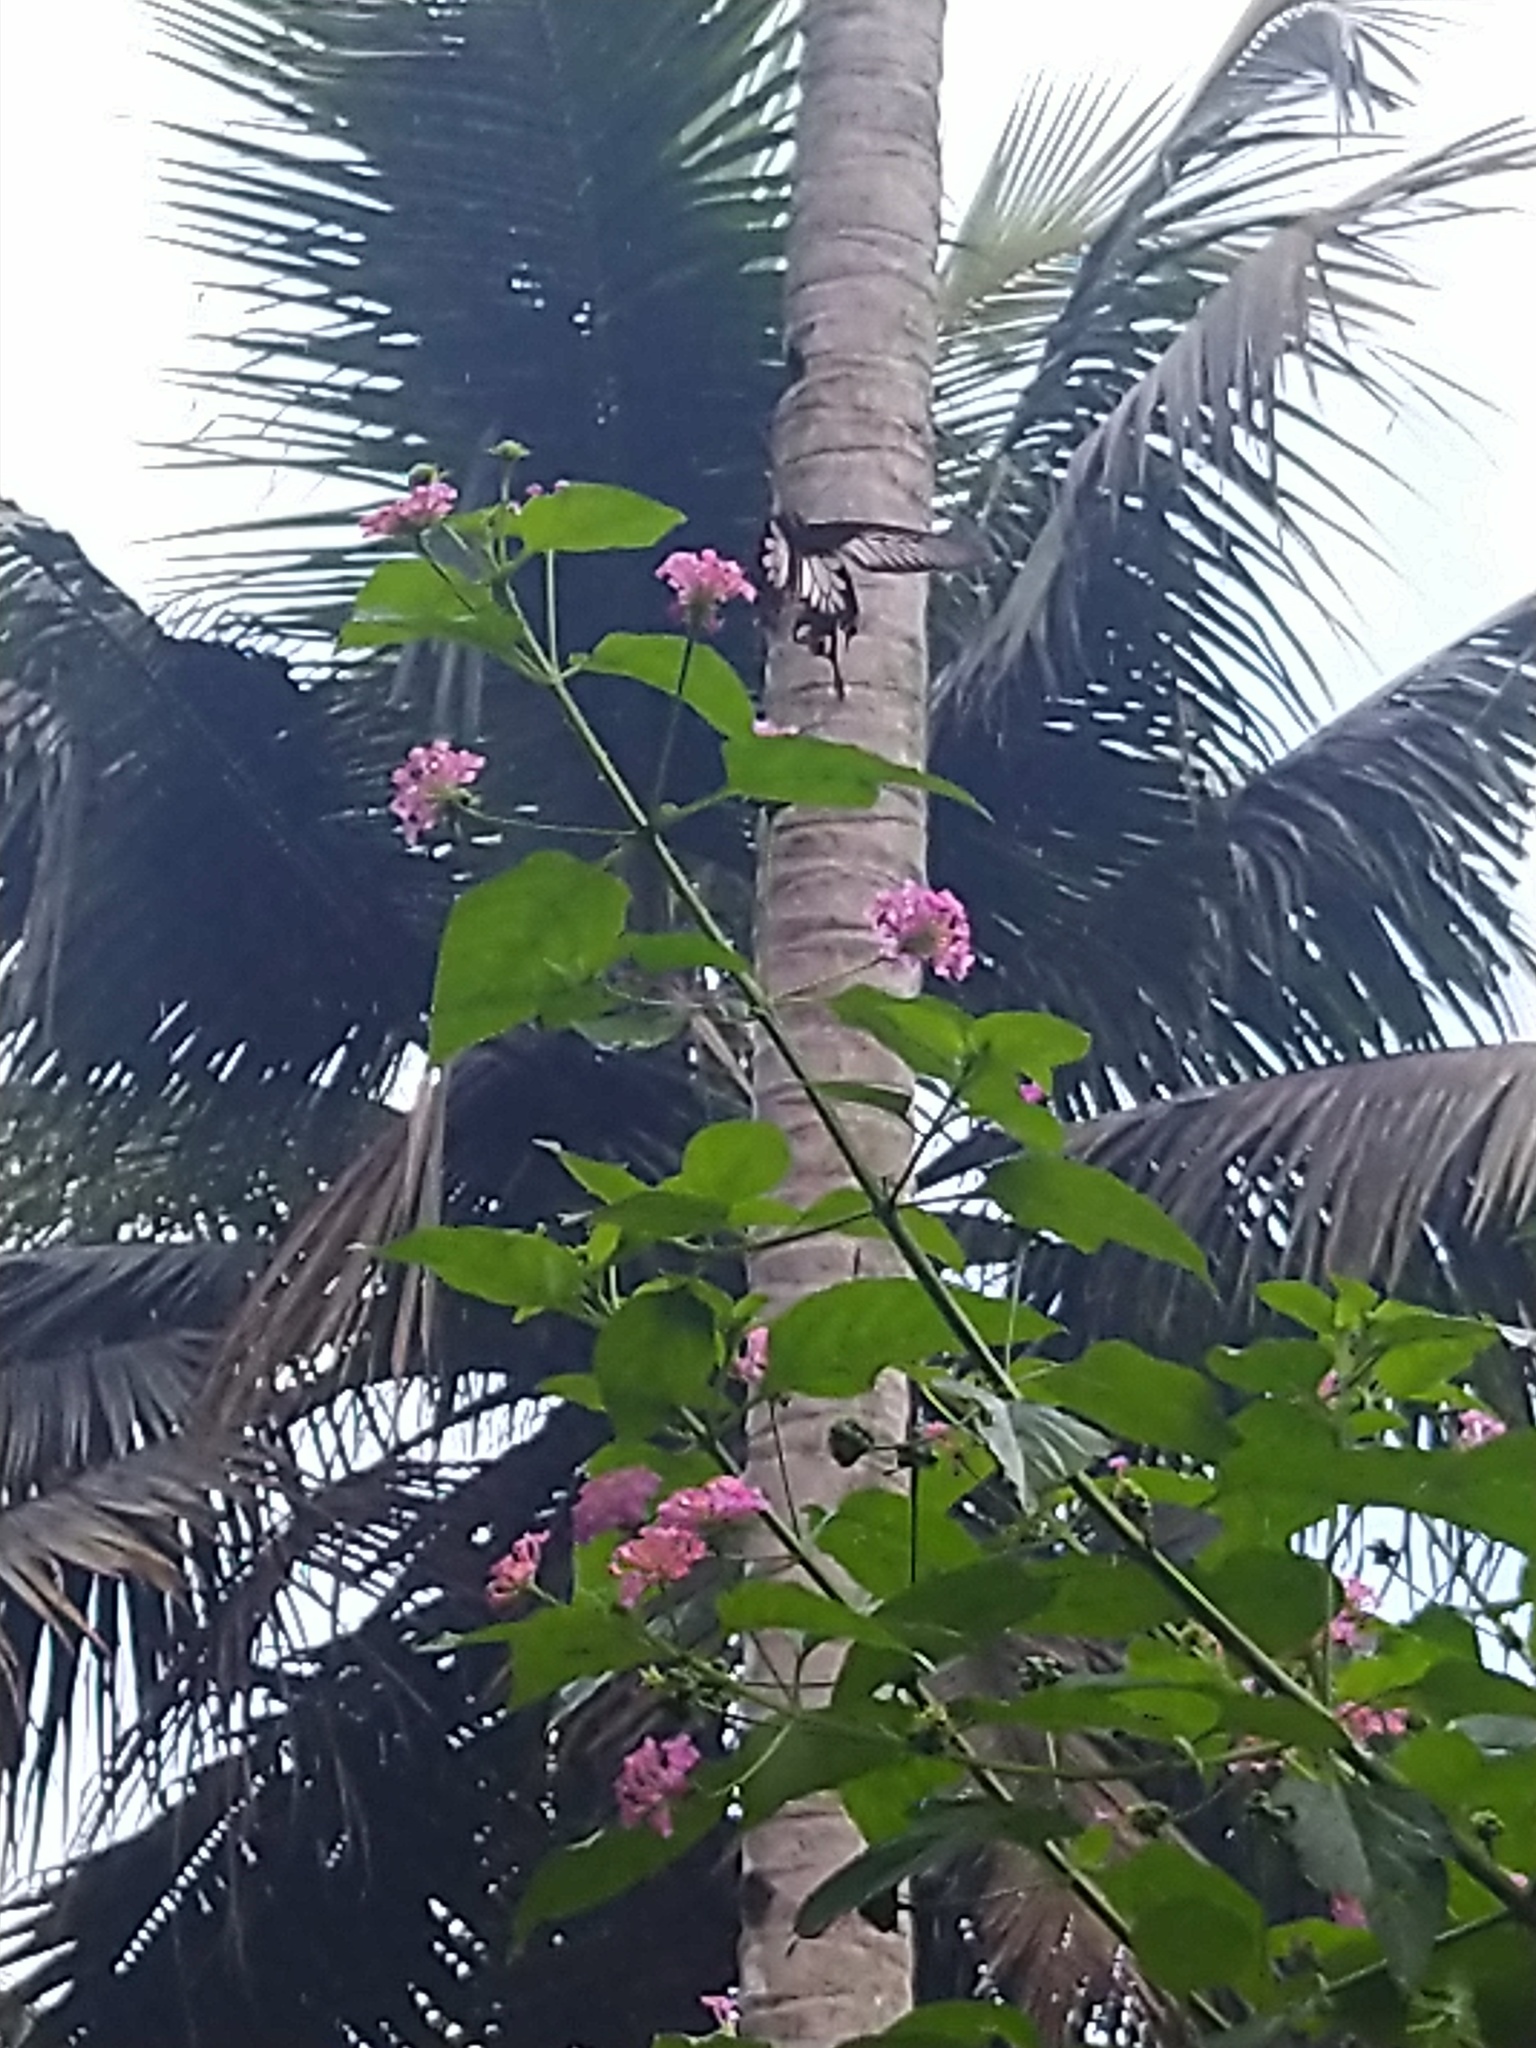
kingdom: Animalia
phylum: Arthropoda
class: Insecta
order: Lepidoptera
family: Papilionidae
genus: Pachliopta
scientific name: Pachliopta pandiyana
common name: Malabar rose
